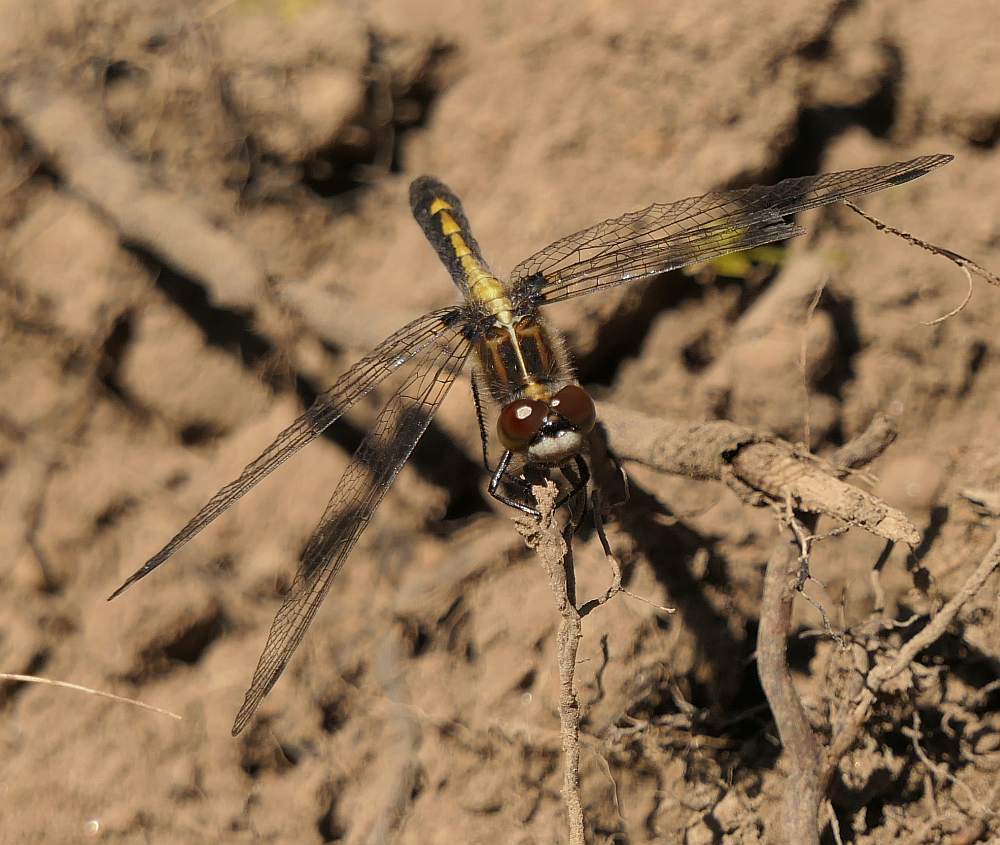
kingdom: Animalia
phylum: Arthropoda
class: Insecta
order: Odonata
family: Libellulidae
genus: Leucorrhinia
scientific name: Leucorrhinia intacta
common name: Dot-tailed whiteface
